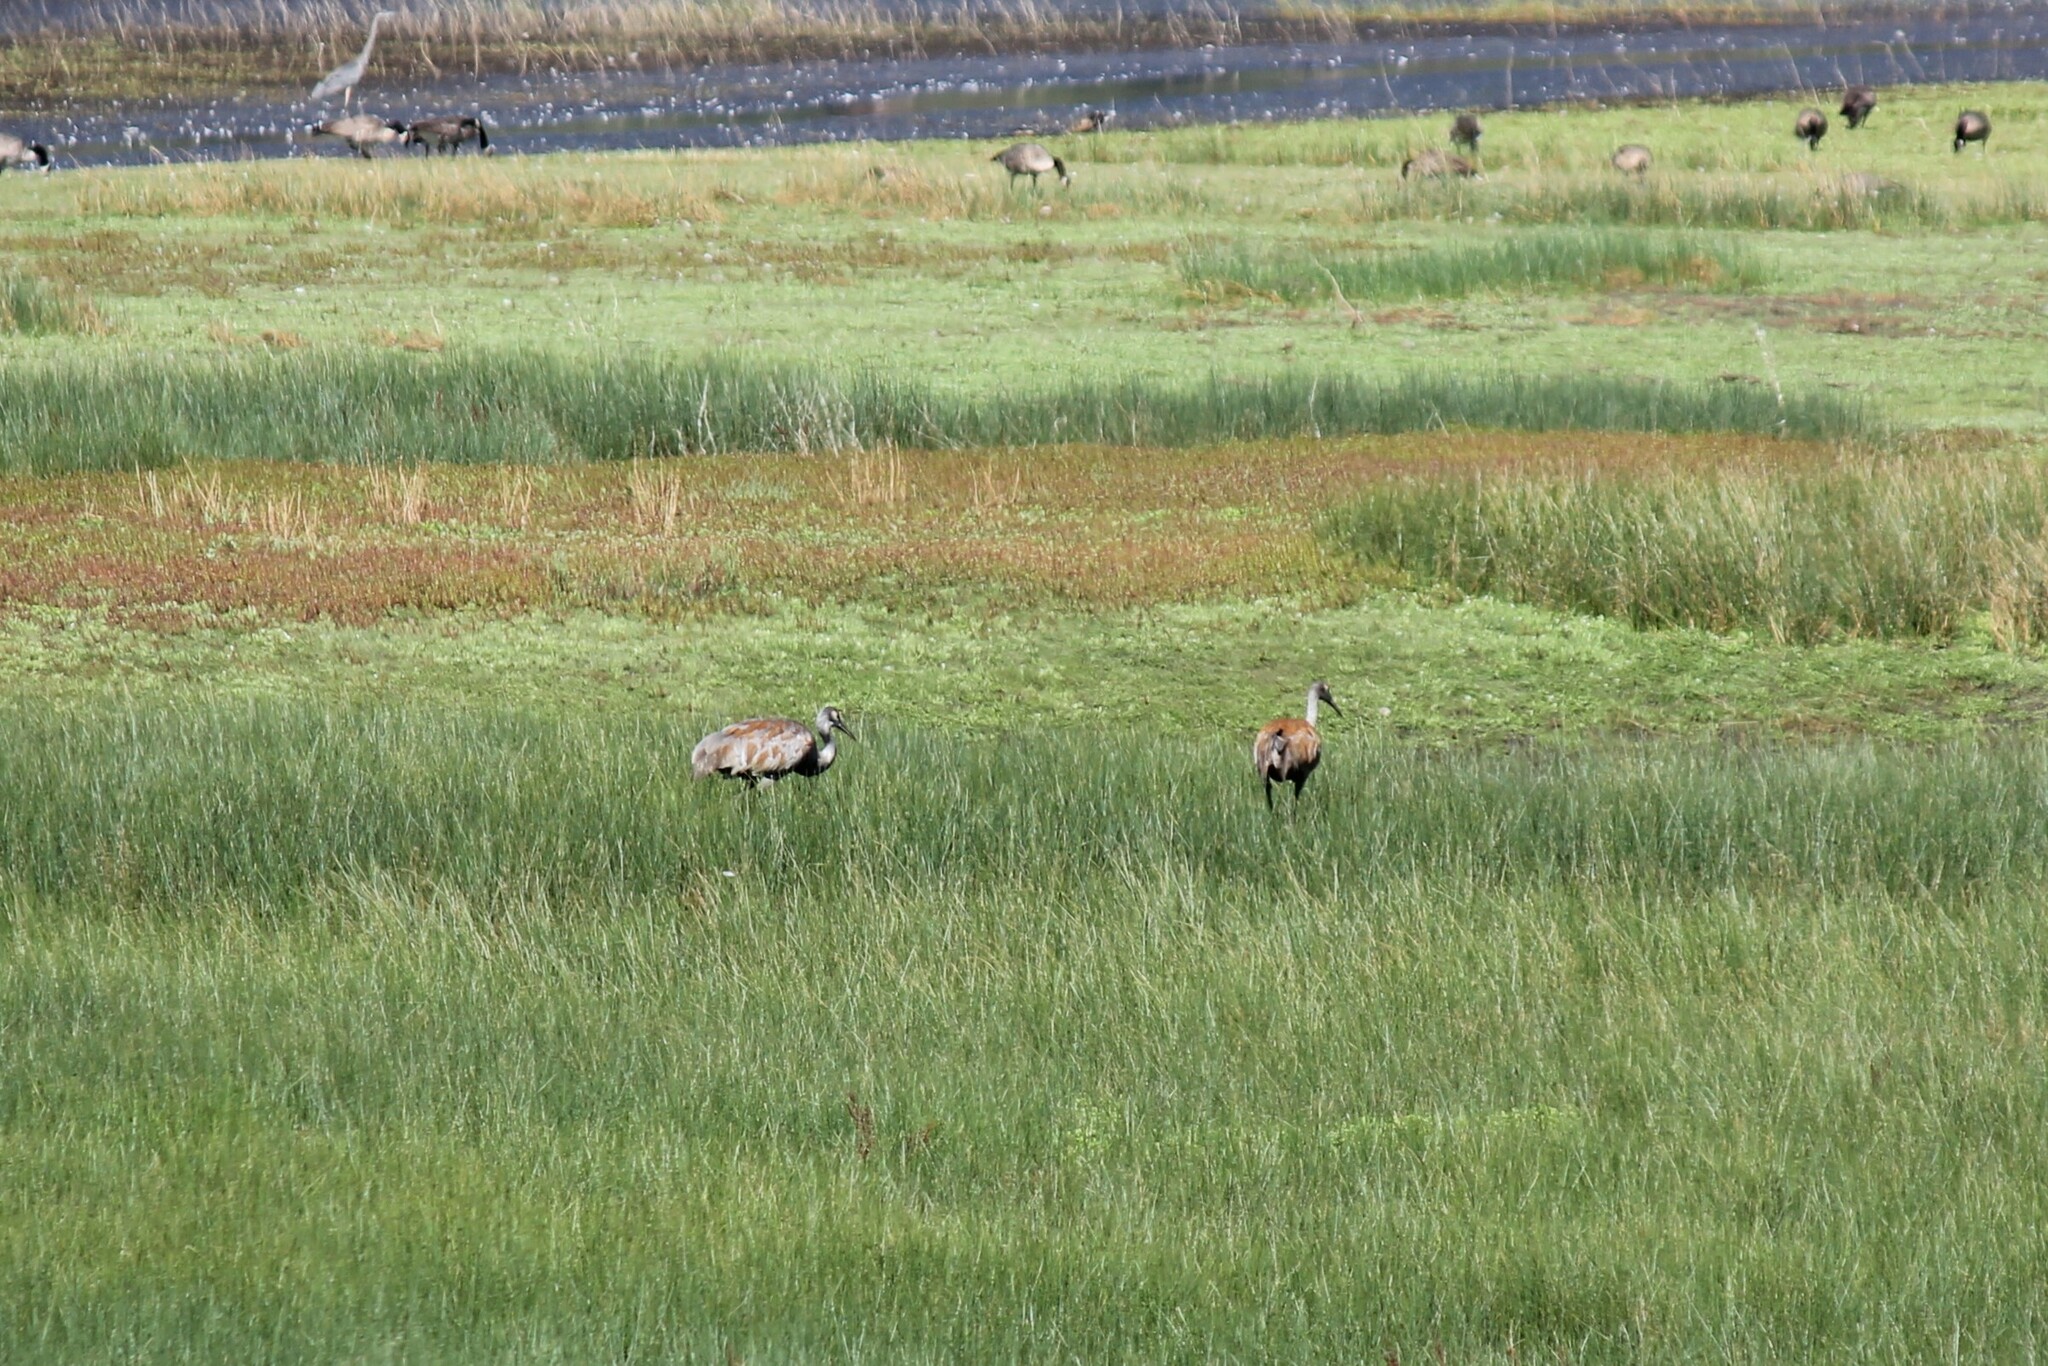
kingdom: Animalia
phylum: Chordata
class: Aves
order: Gruiformes
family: Gruidae
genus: Grus
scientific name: Grus canadensis
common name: Sandhill crane
